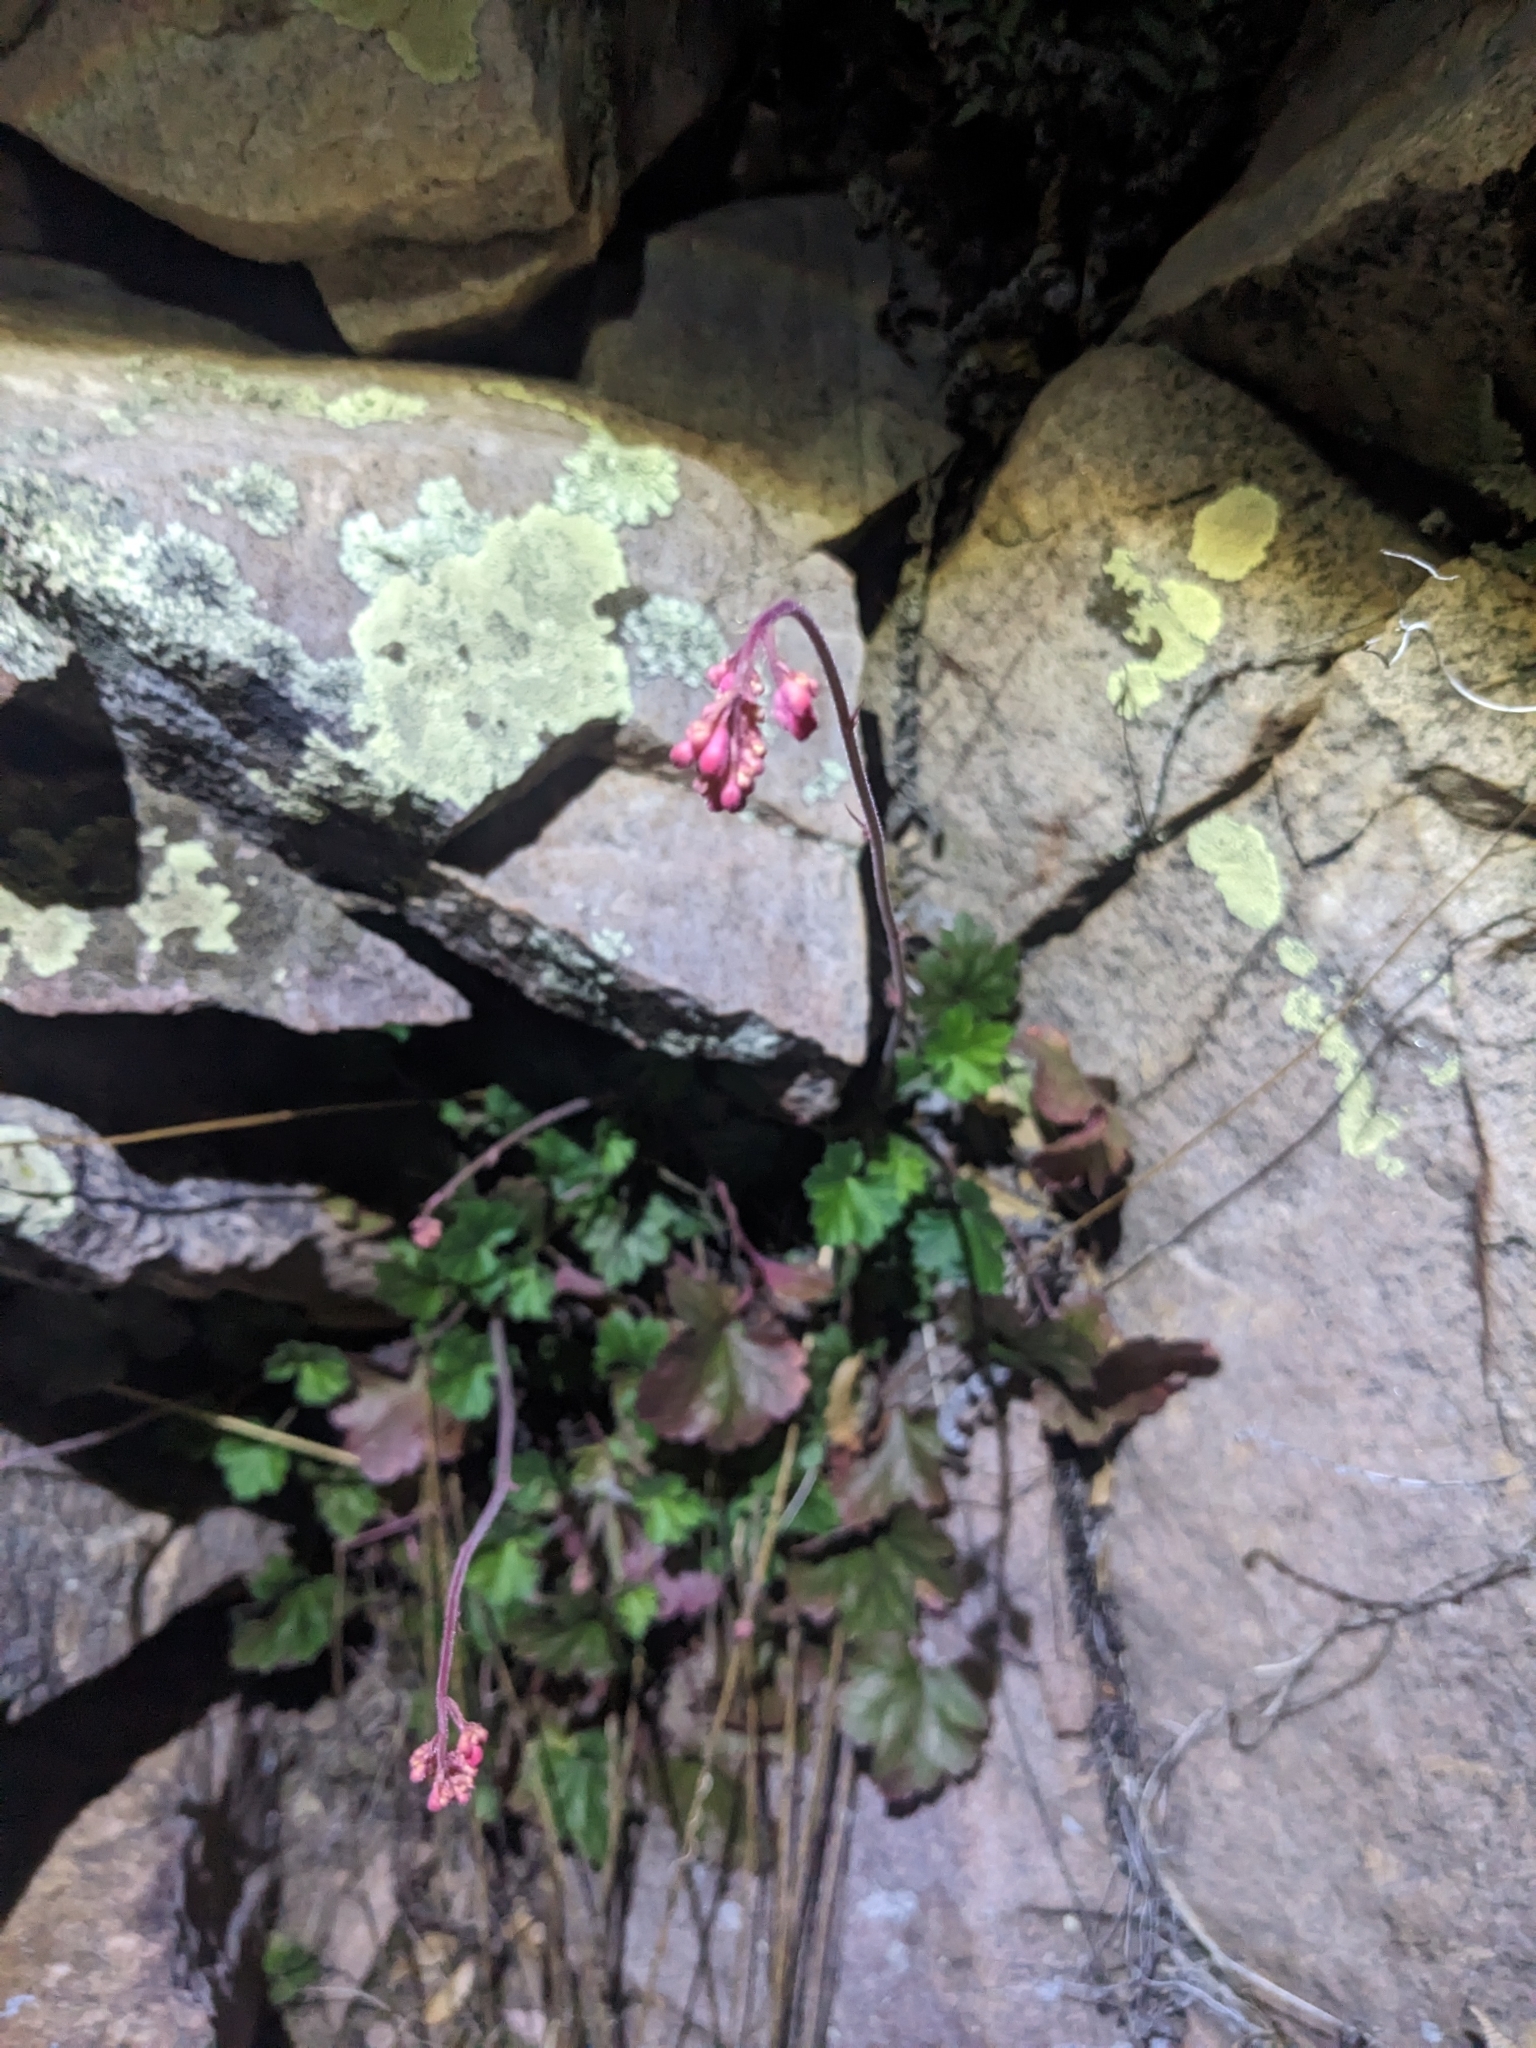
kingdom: Plantae
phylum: Tracheophyta
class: Magnoliopsida
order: Saxifragales
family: Saxifragaceae
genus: Heuchera
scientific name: Heuchera sanguinea
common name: Coralbells
